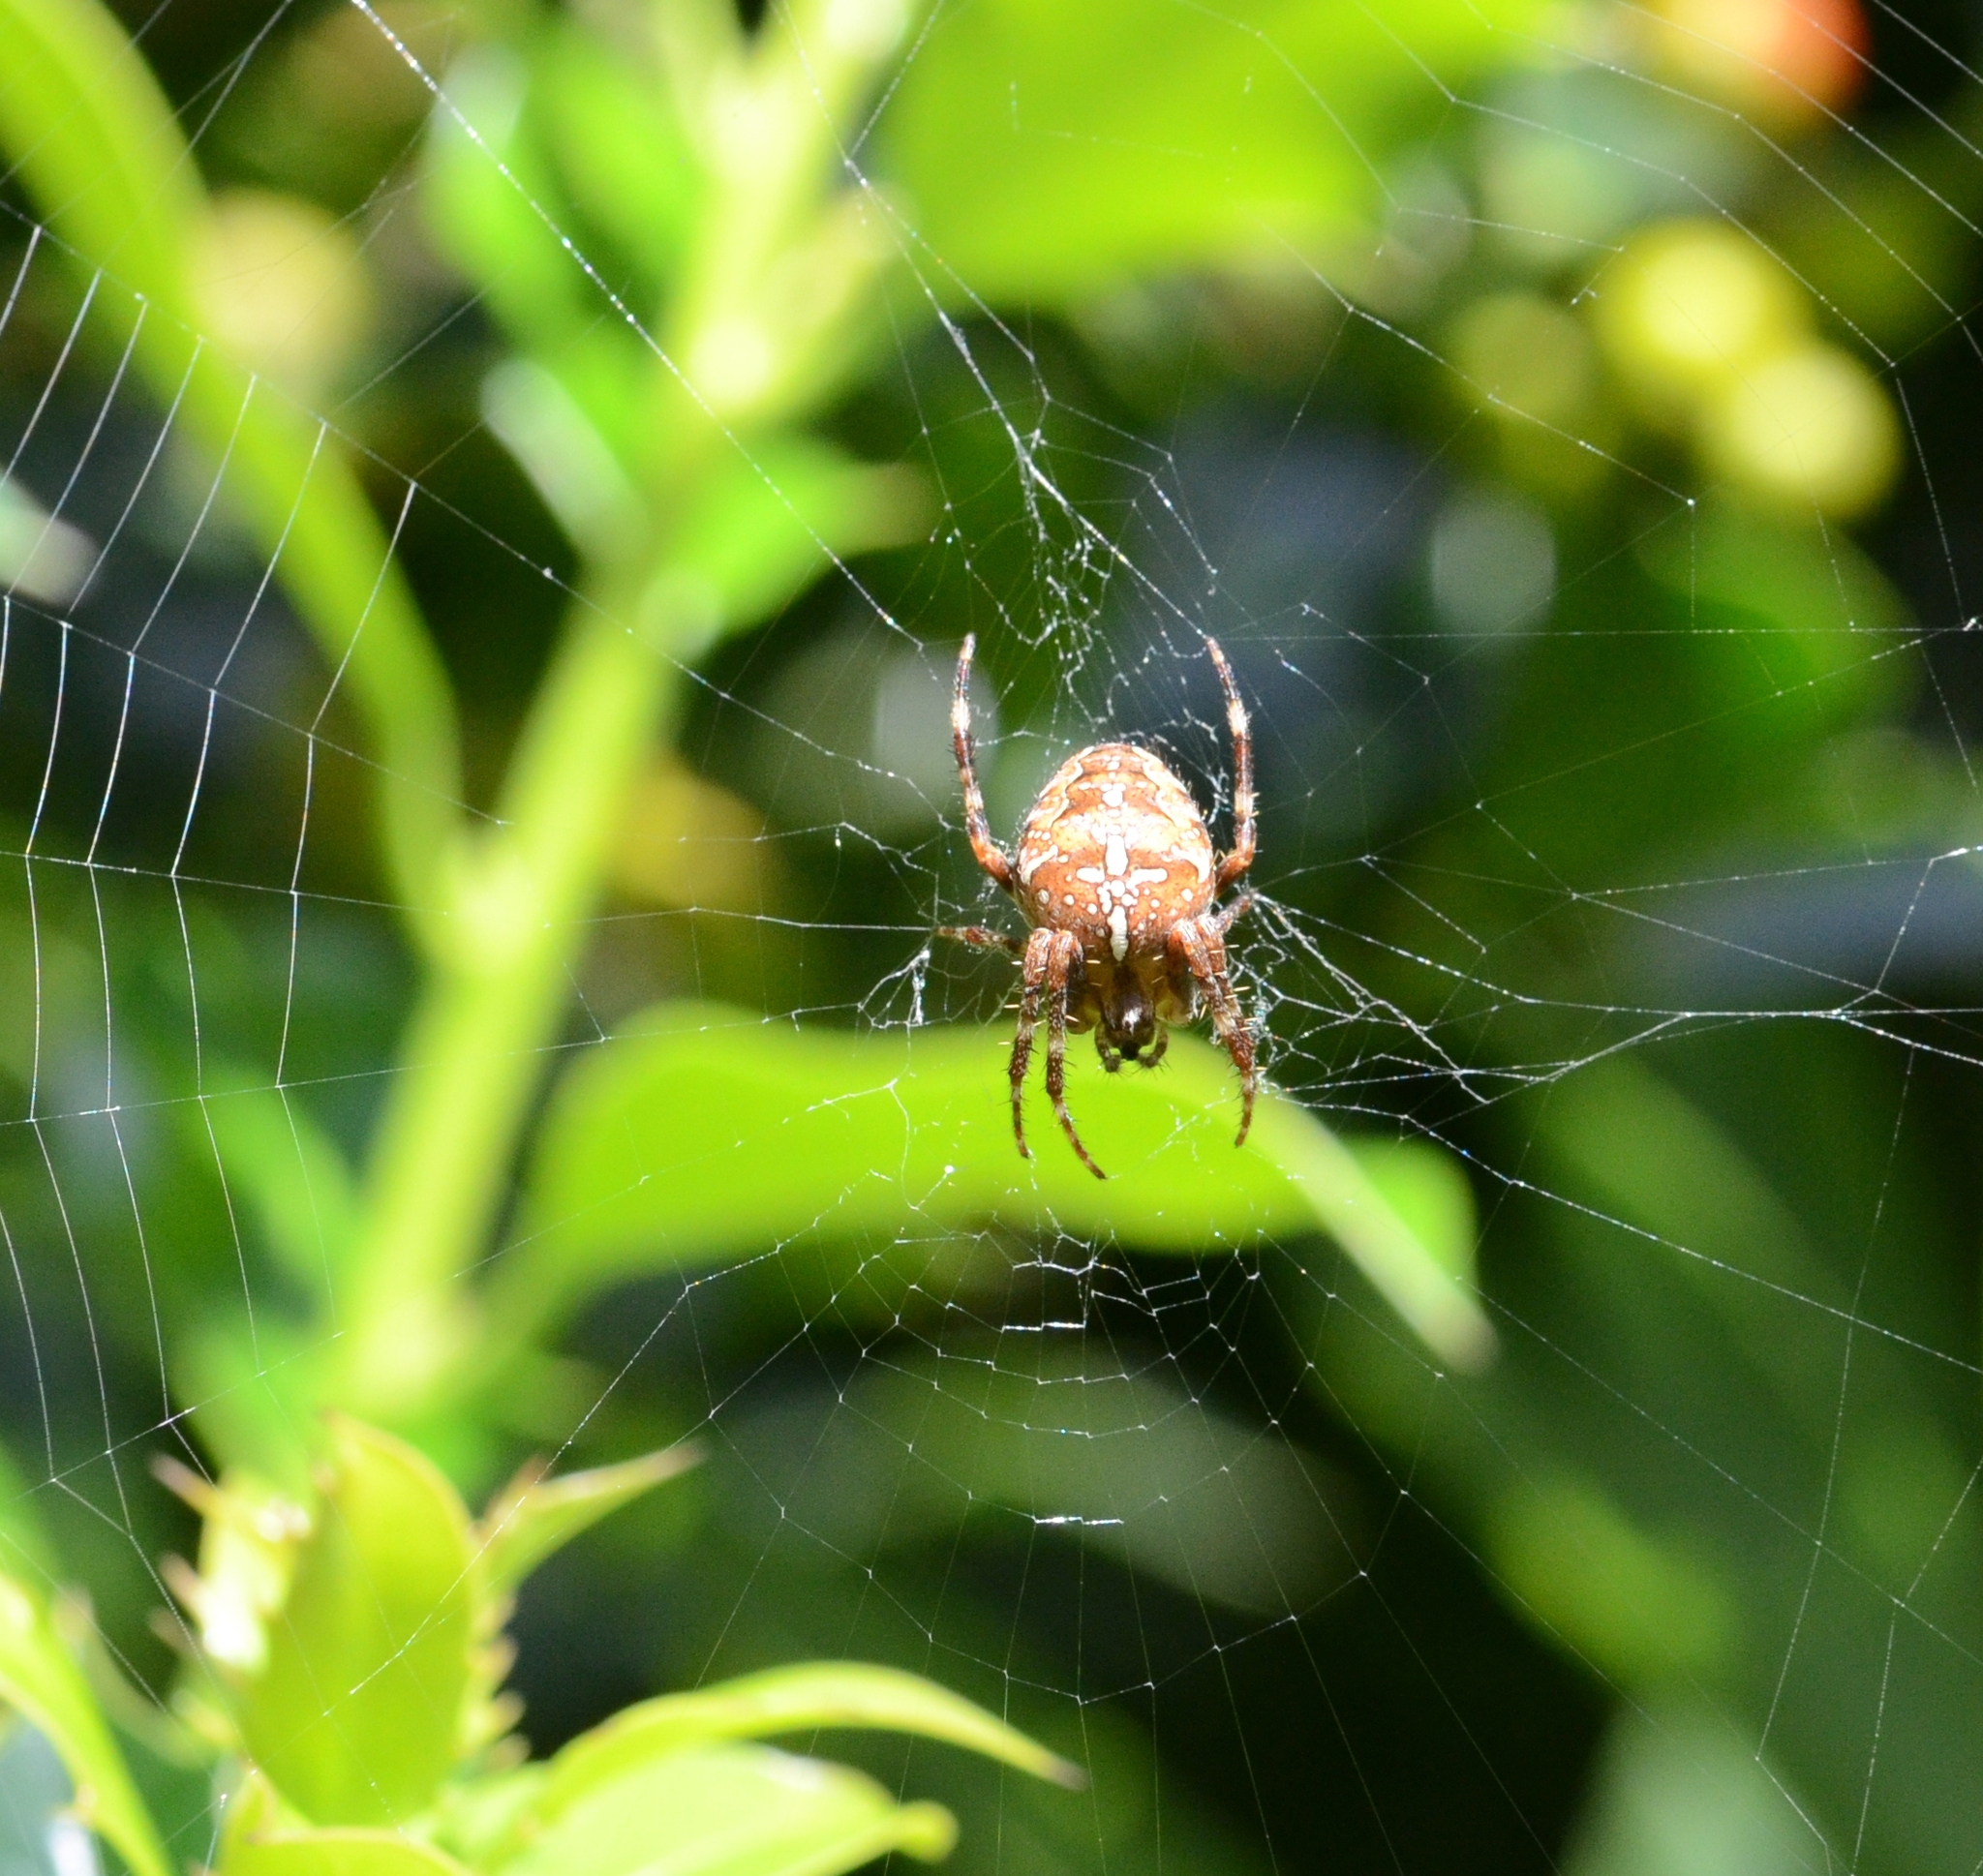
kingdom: Animalia
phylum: Arthropoda
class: Arachnida
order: Araneae
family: Araneidae
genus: Araneus
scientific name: Araneus diadematus
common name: Cross orbweaver
